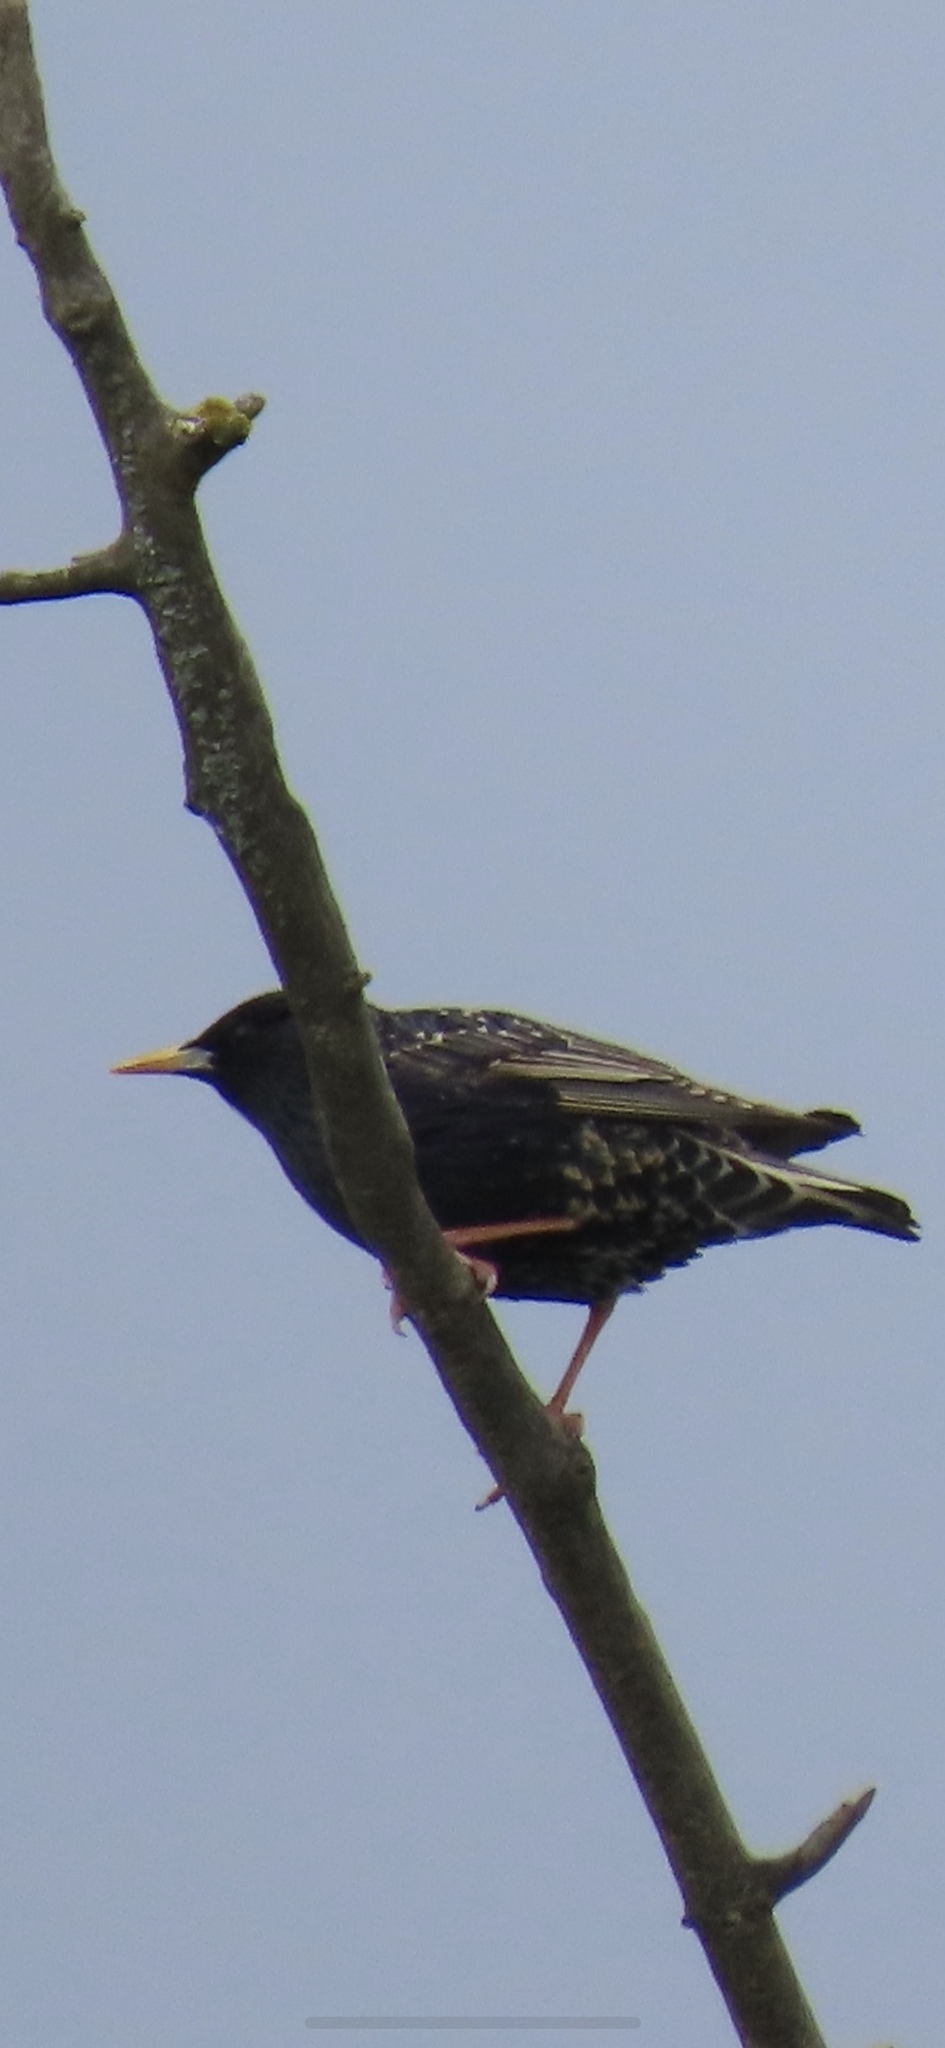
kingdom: Animalia
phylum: Chordata
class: Aves
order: Passeriformes
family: Sturnidae
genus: Sturnus
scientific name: Sturnus vulgaris
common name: Common starling
